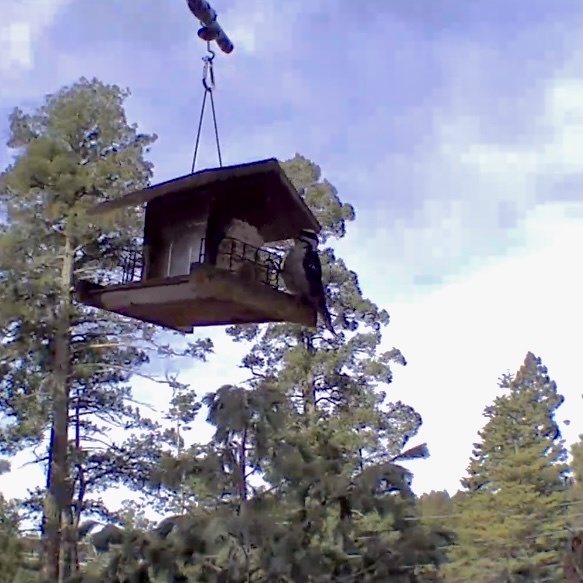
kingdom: Animalia
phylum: Chordata
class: Aves
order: Piciformes
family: Picidae
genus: Leuconotopicus
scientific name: Leuconotopicus villosus
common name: Hairy woodpecker
